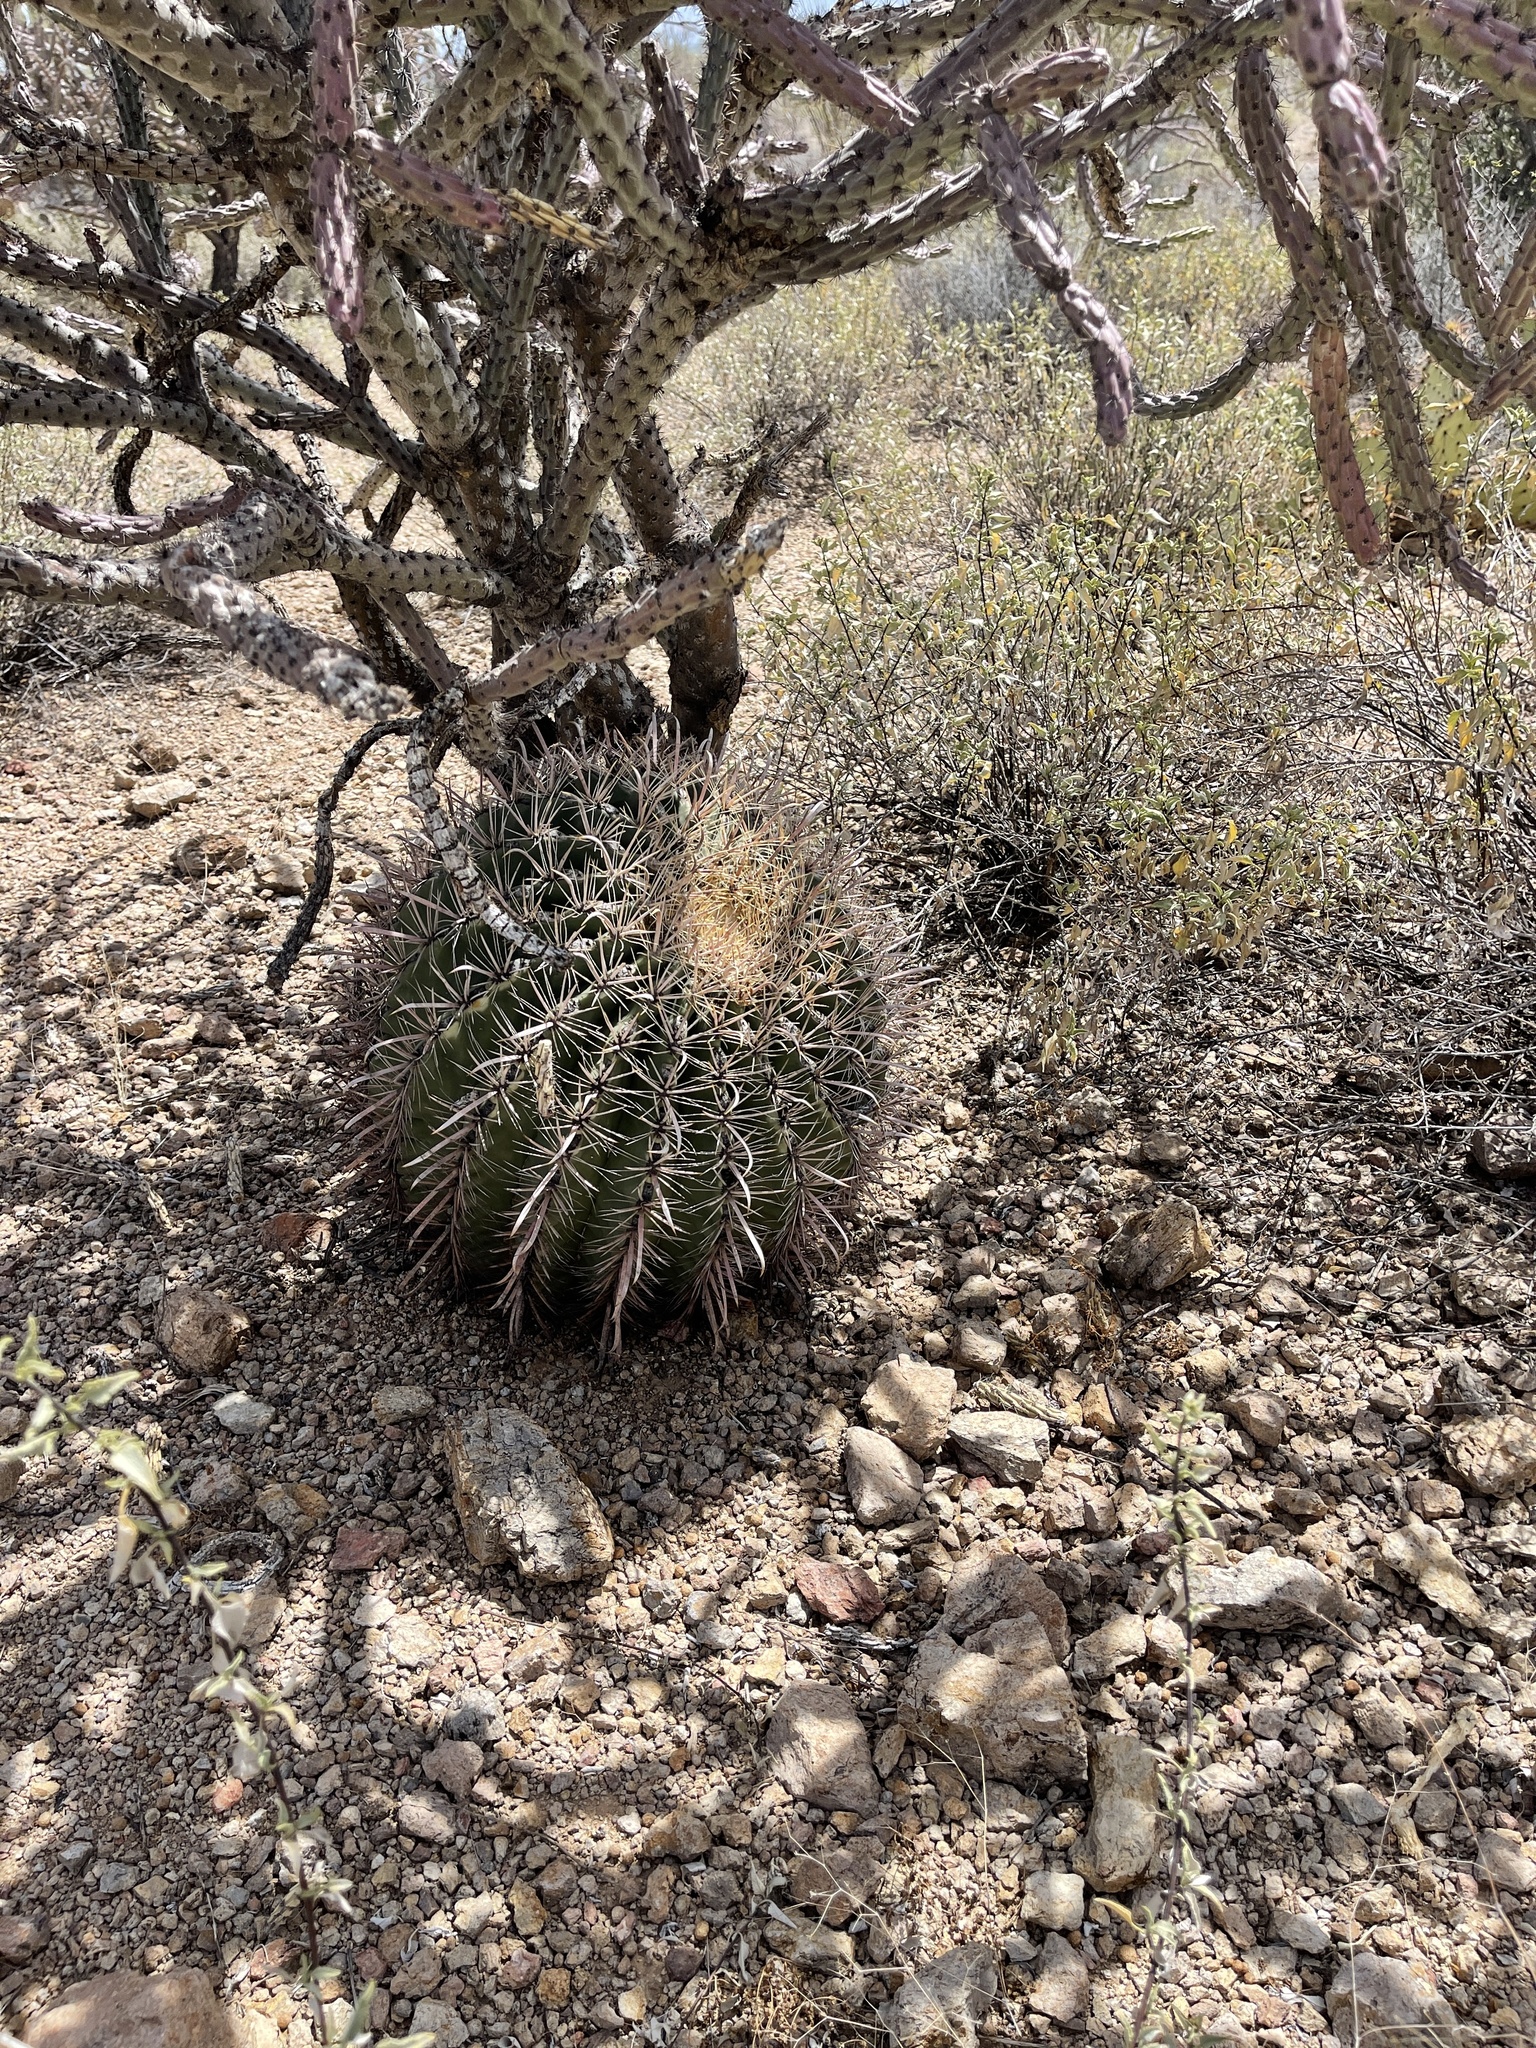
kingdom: Plantae
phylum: Tracheophyta
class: Magnoliopsida
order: Caryophyllales
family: Cactaceae
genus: Ferocactus
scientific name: Ferocactus wislizeni
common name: Candy barrel cactus
